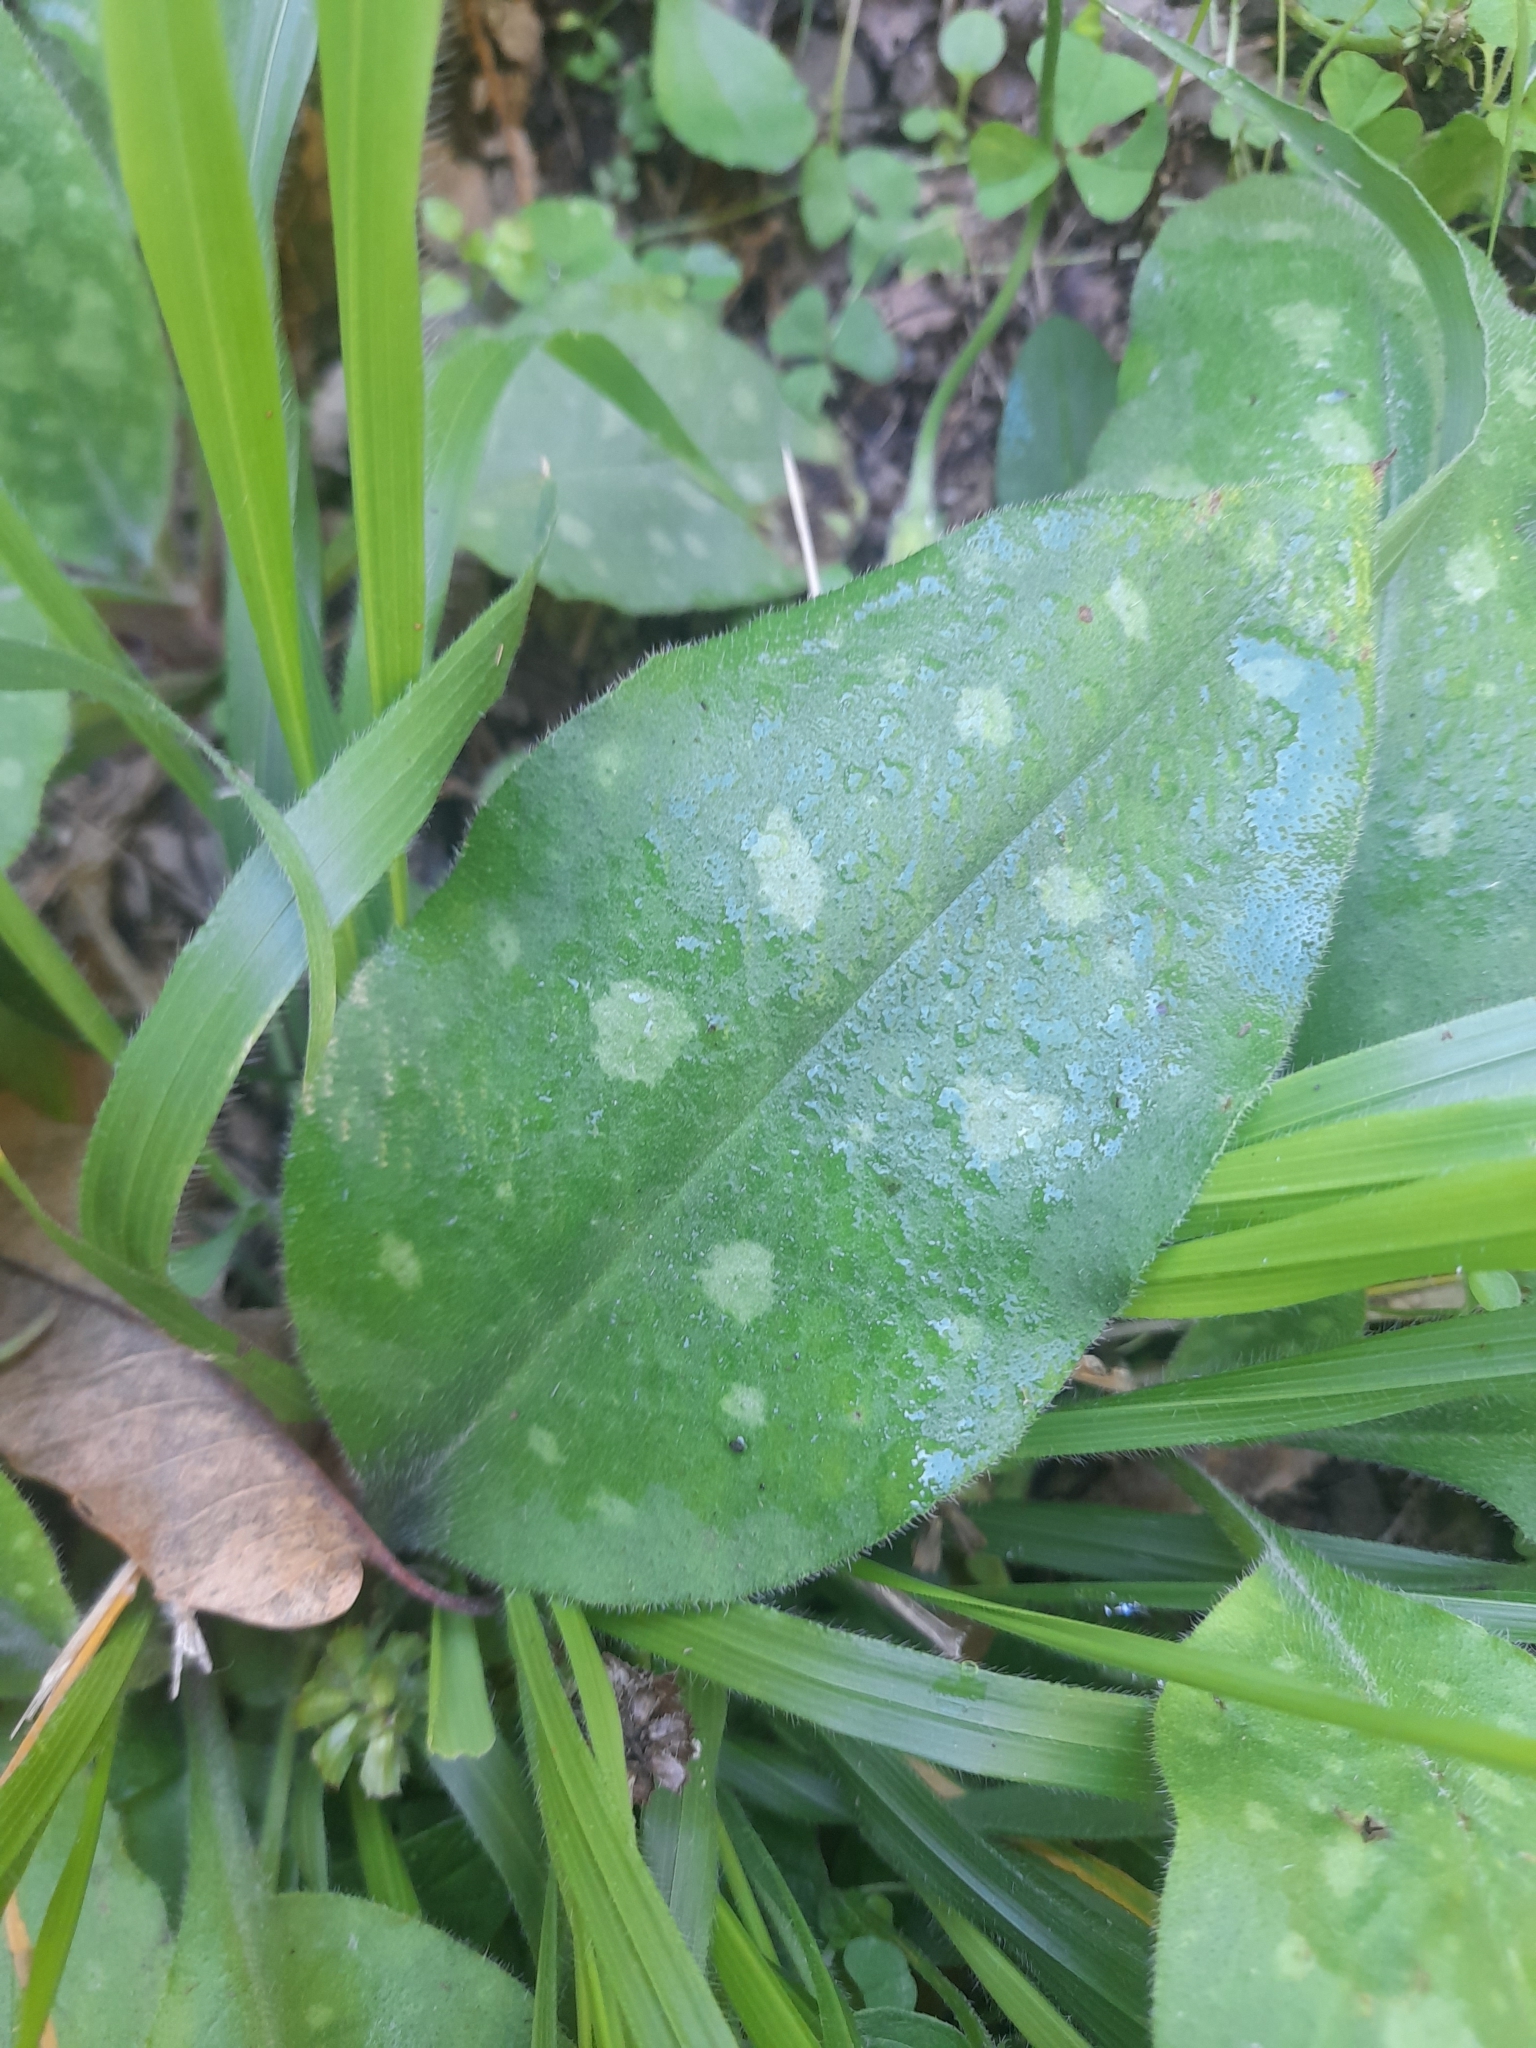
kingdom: Plantae
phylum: Tracheophyta
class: Magnoliopsida
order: Boraginales
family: Boraginaceae
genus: Pulmonaria
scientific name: Pulmonaria hirta
